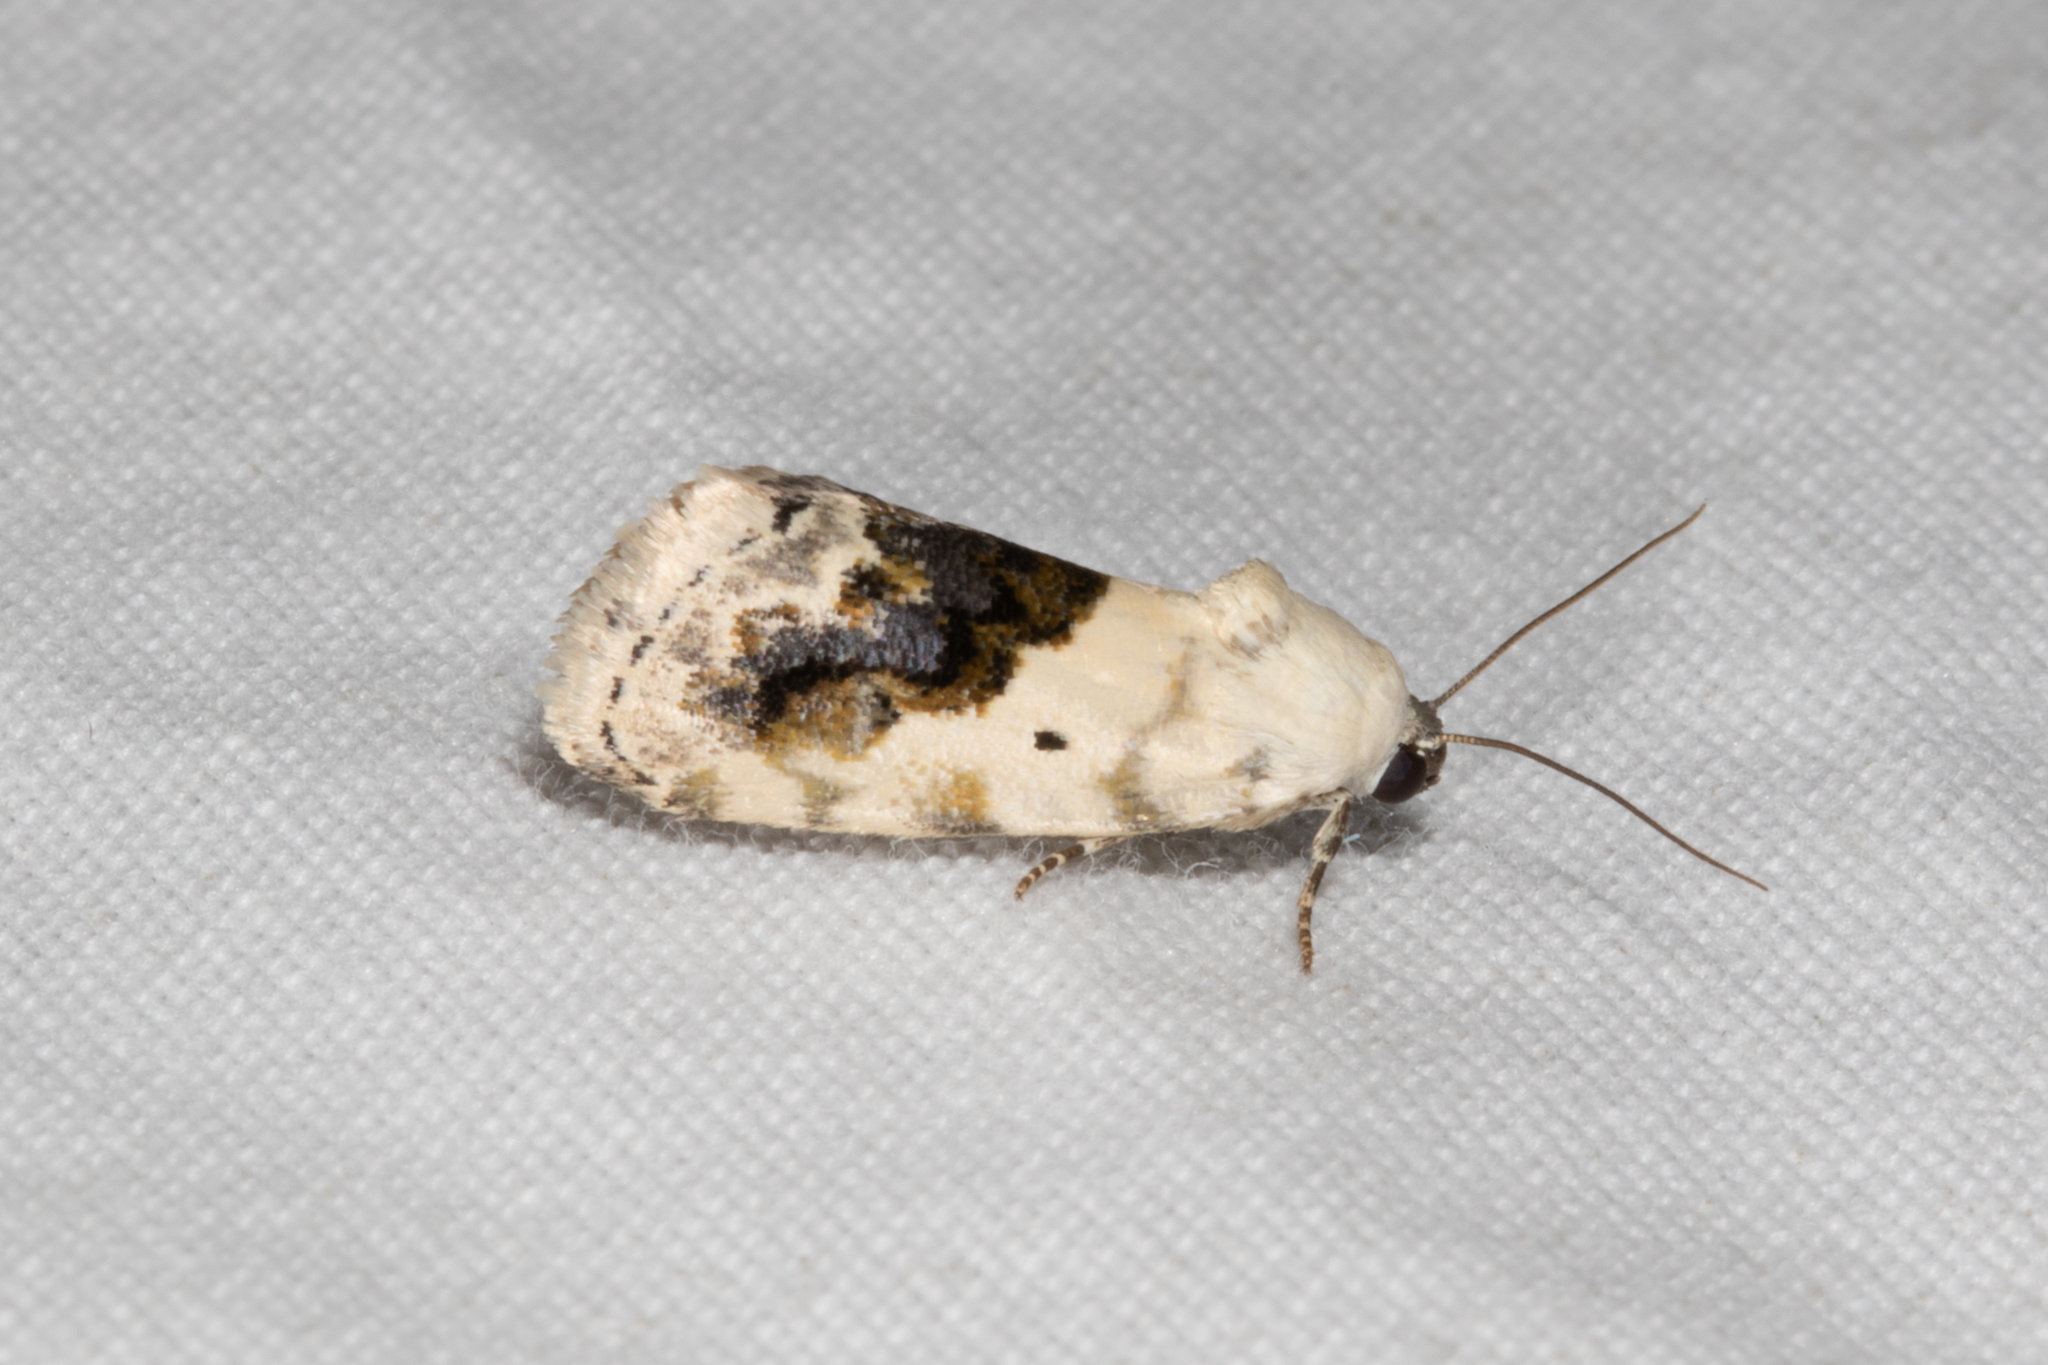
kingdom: Animalia
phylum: Arthropoda
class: Insecta
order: Lepidoptera
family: Noctuidae
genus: Acontia
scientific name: Acontia erastrioides
